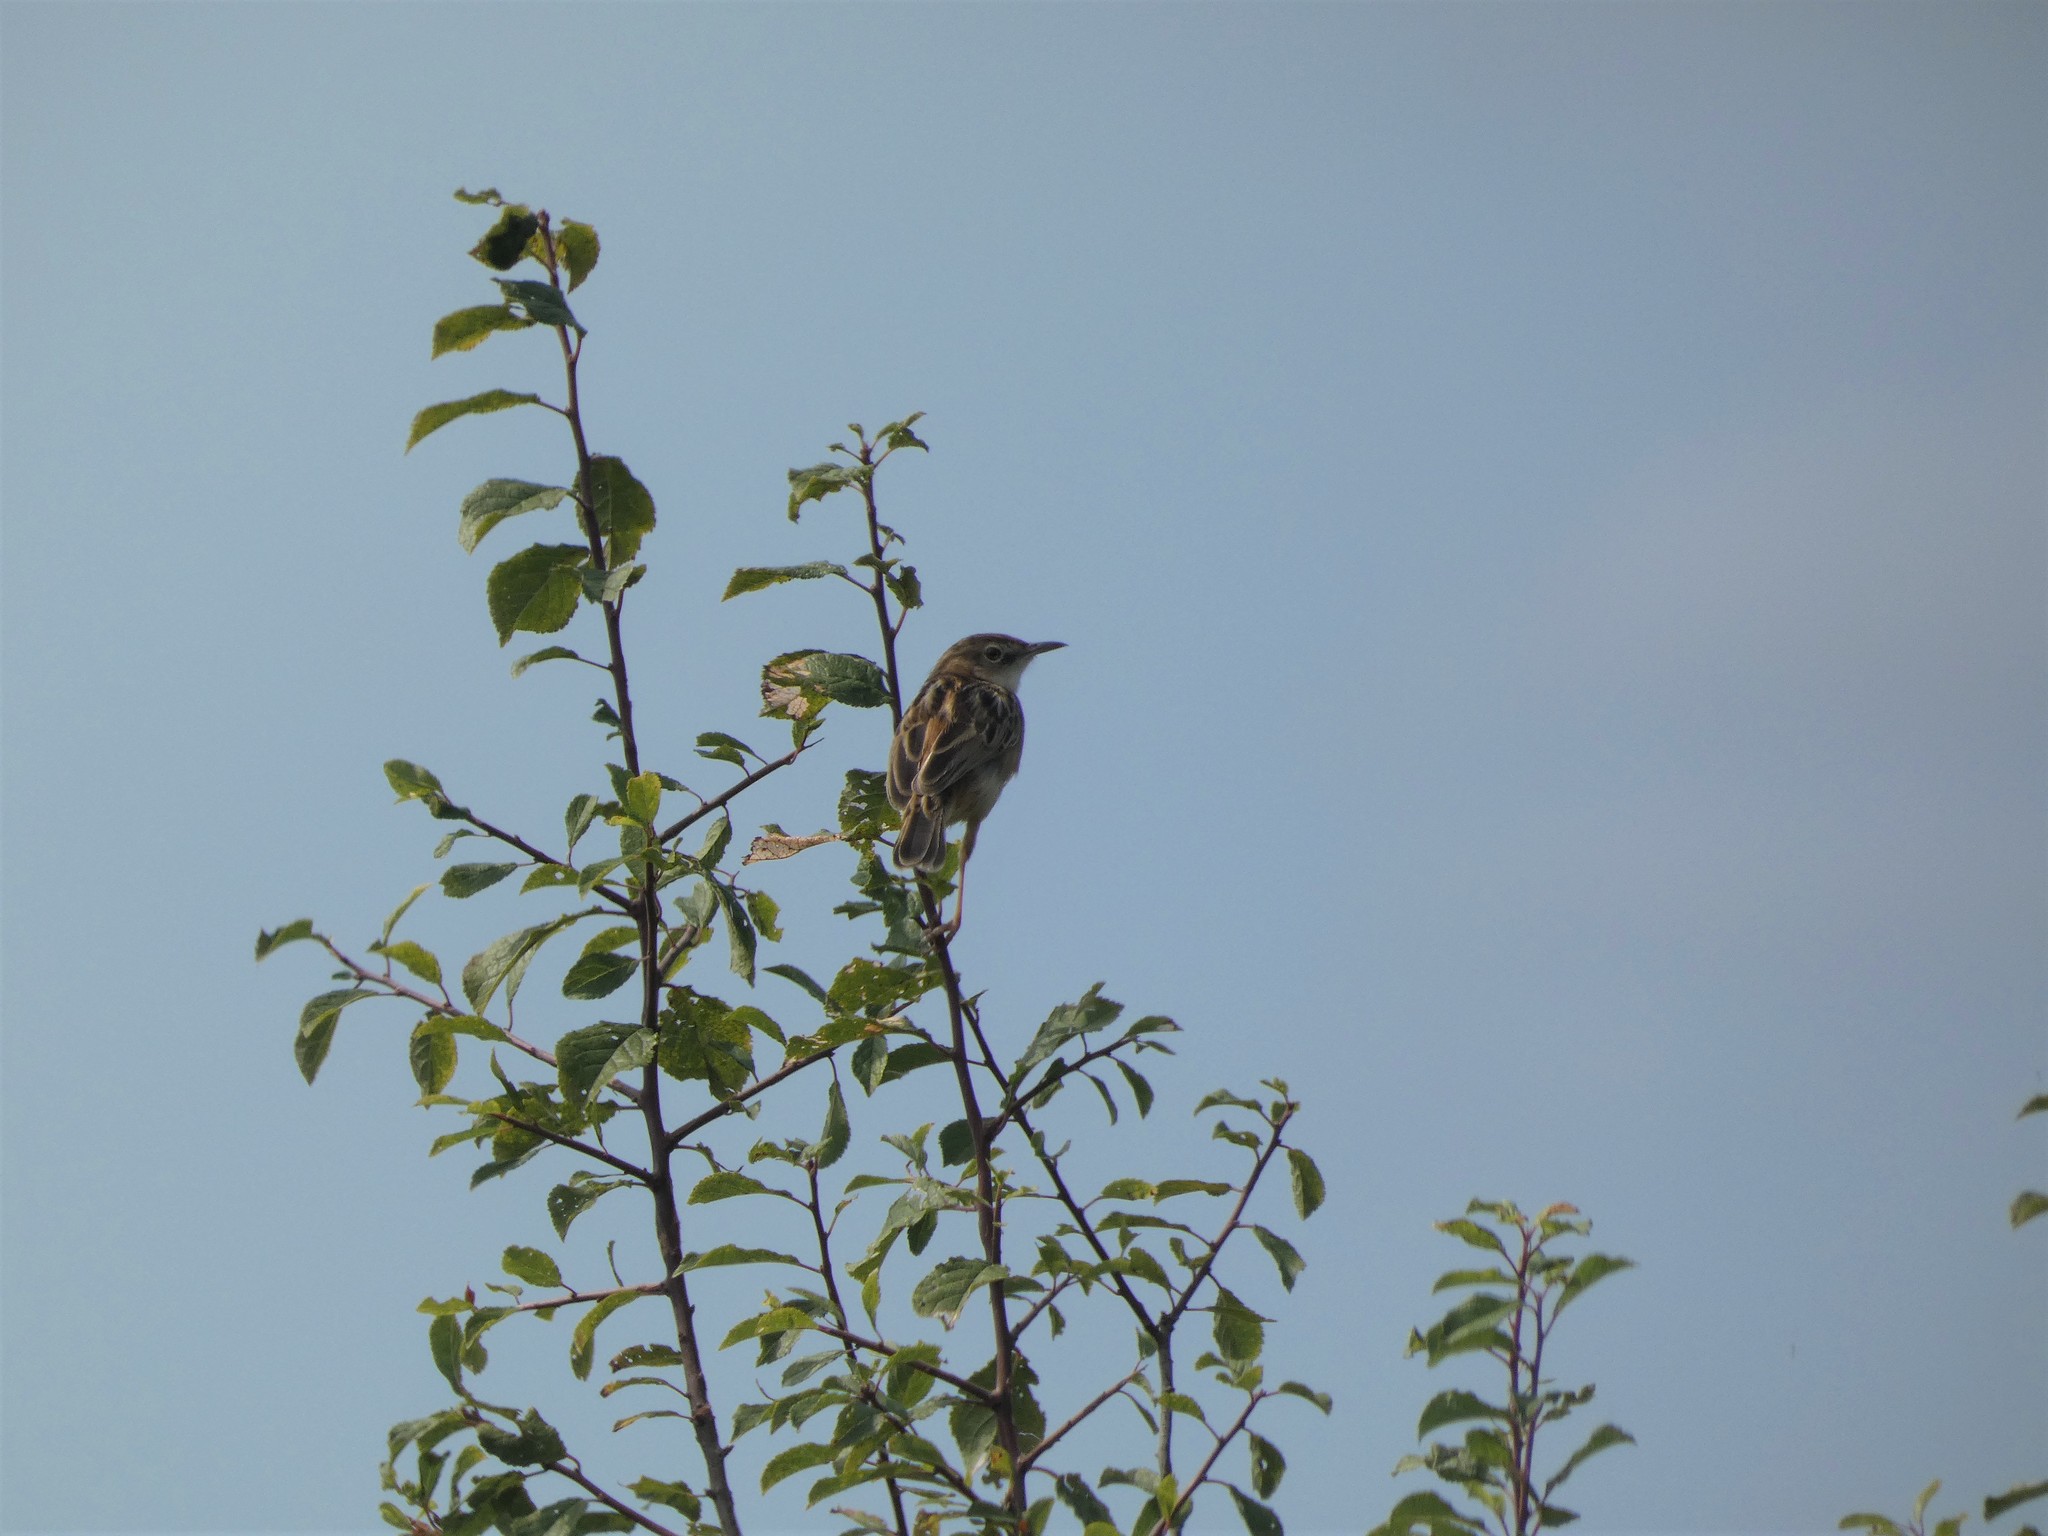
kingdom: Animalia
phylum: Chordata
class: Aves
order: Passeriformes
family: Cisticolidae
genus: Cisticola
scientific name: Cisticola juncidis
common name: Zitting cisticola
